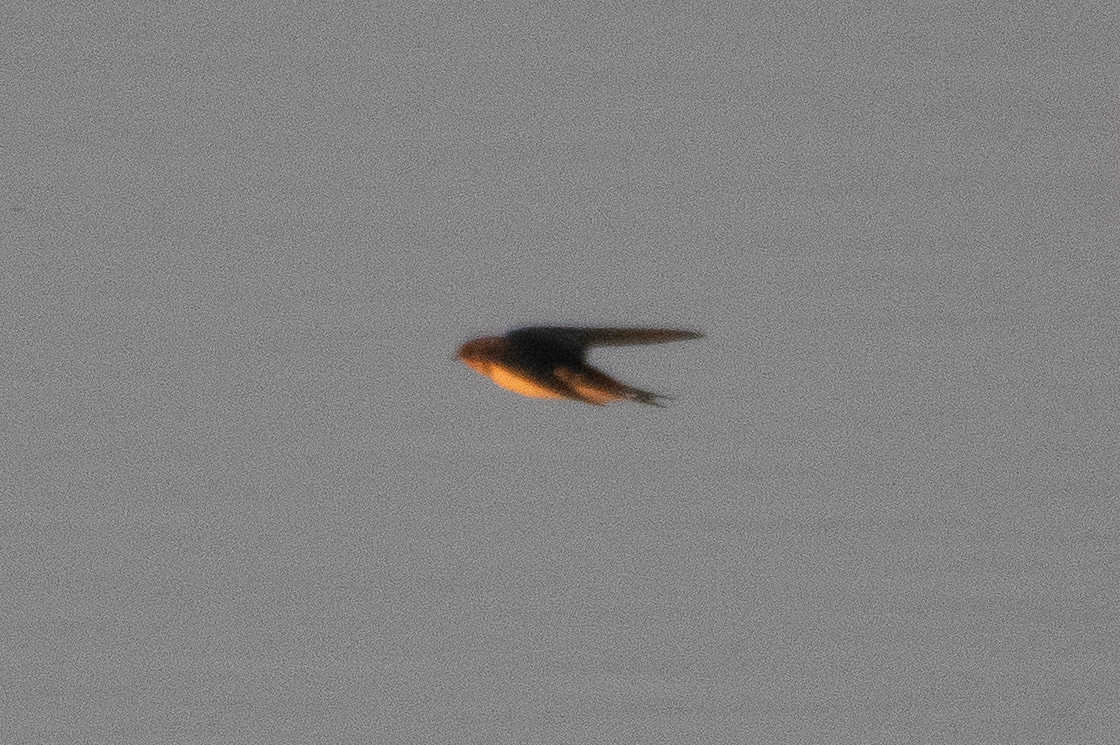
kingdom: Animalia
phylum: Chordata
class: Aves
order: Passeriformes
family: Hirundinidae
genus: Hirundo
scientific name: Hirundo rustica
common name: Barn swallow
